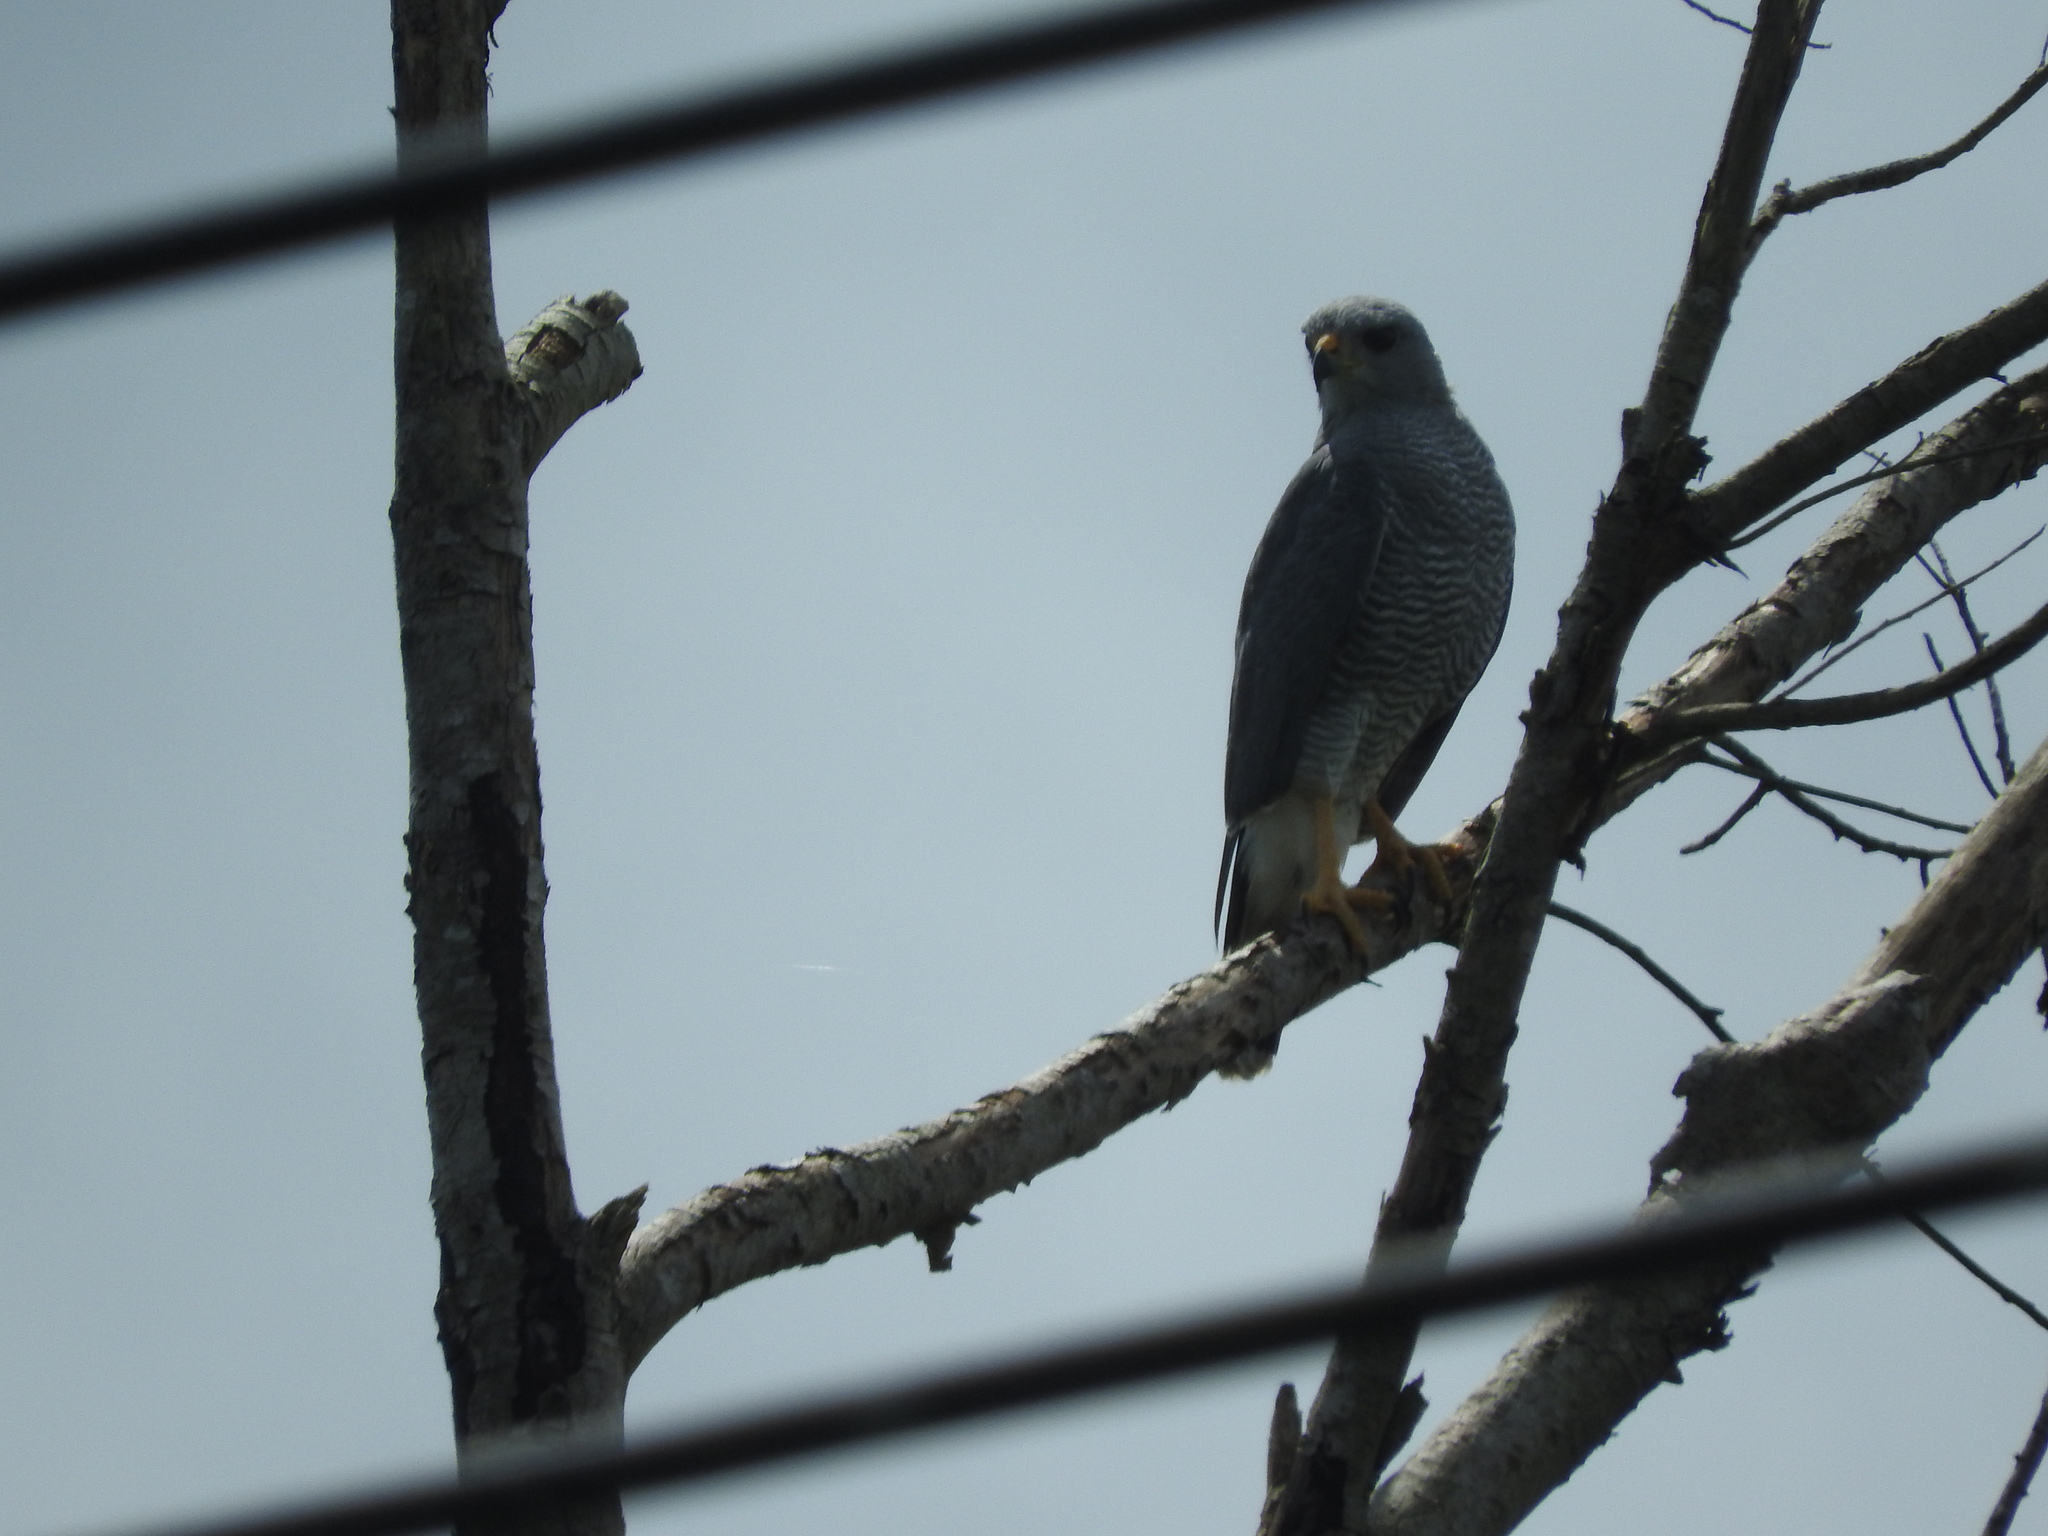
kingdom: Animalia
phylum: Chordata
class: Aves
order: Accipitriformes
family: Accipitridae
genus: Buteo
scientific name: Buteo nitidus
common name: Grey-lined hawk
